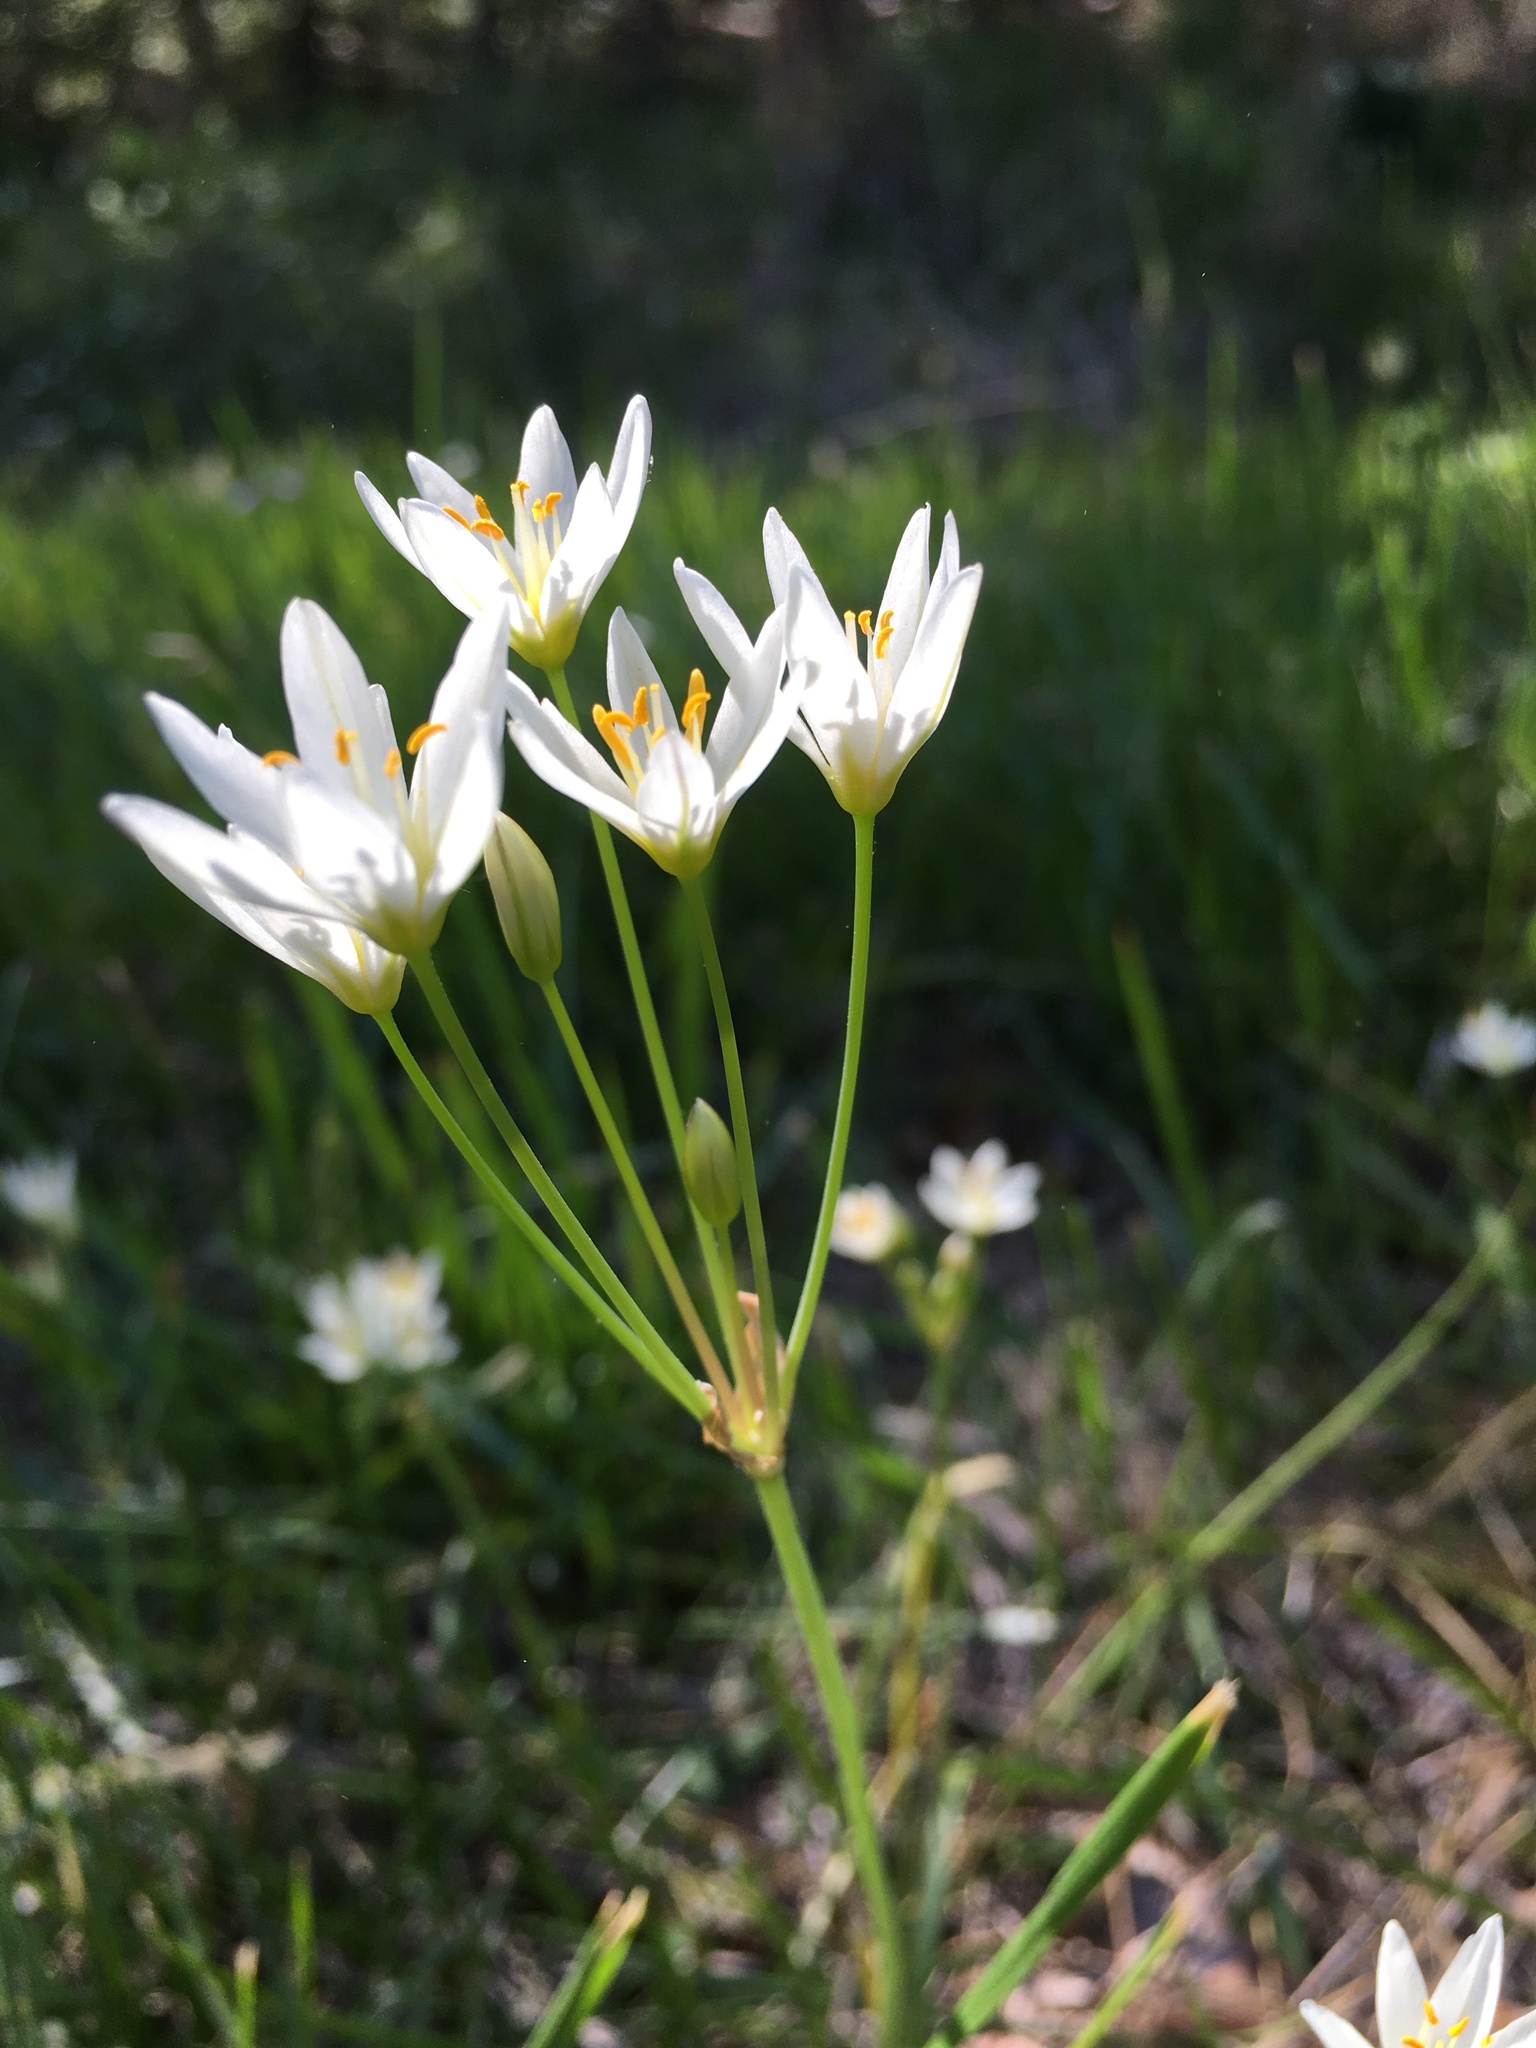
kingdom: Plantae
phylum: Tracheophyta
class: Liliopsida
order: Asparagales
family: Amaryllidaceae
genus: Nothoscordum
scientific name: Nothoscordum bivalve
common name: Crow-poison
